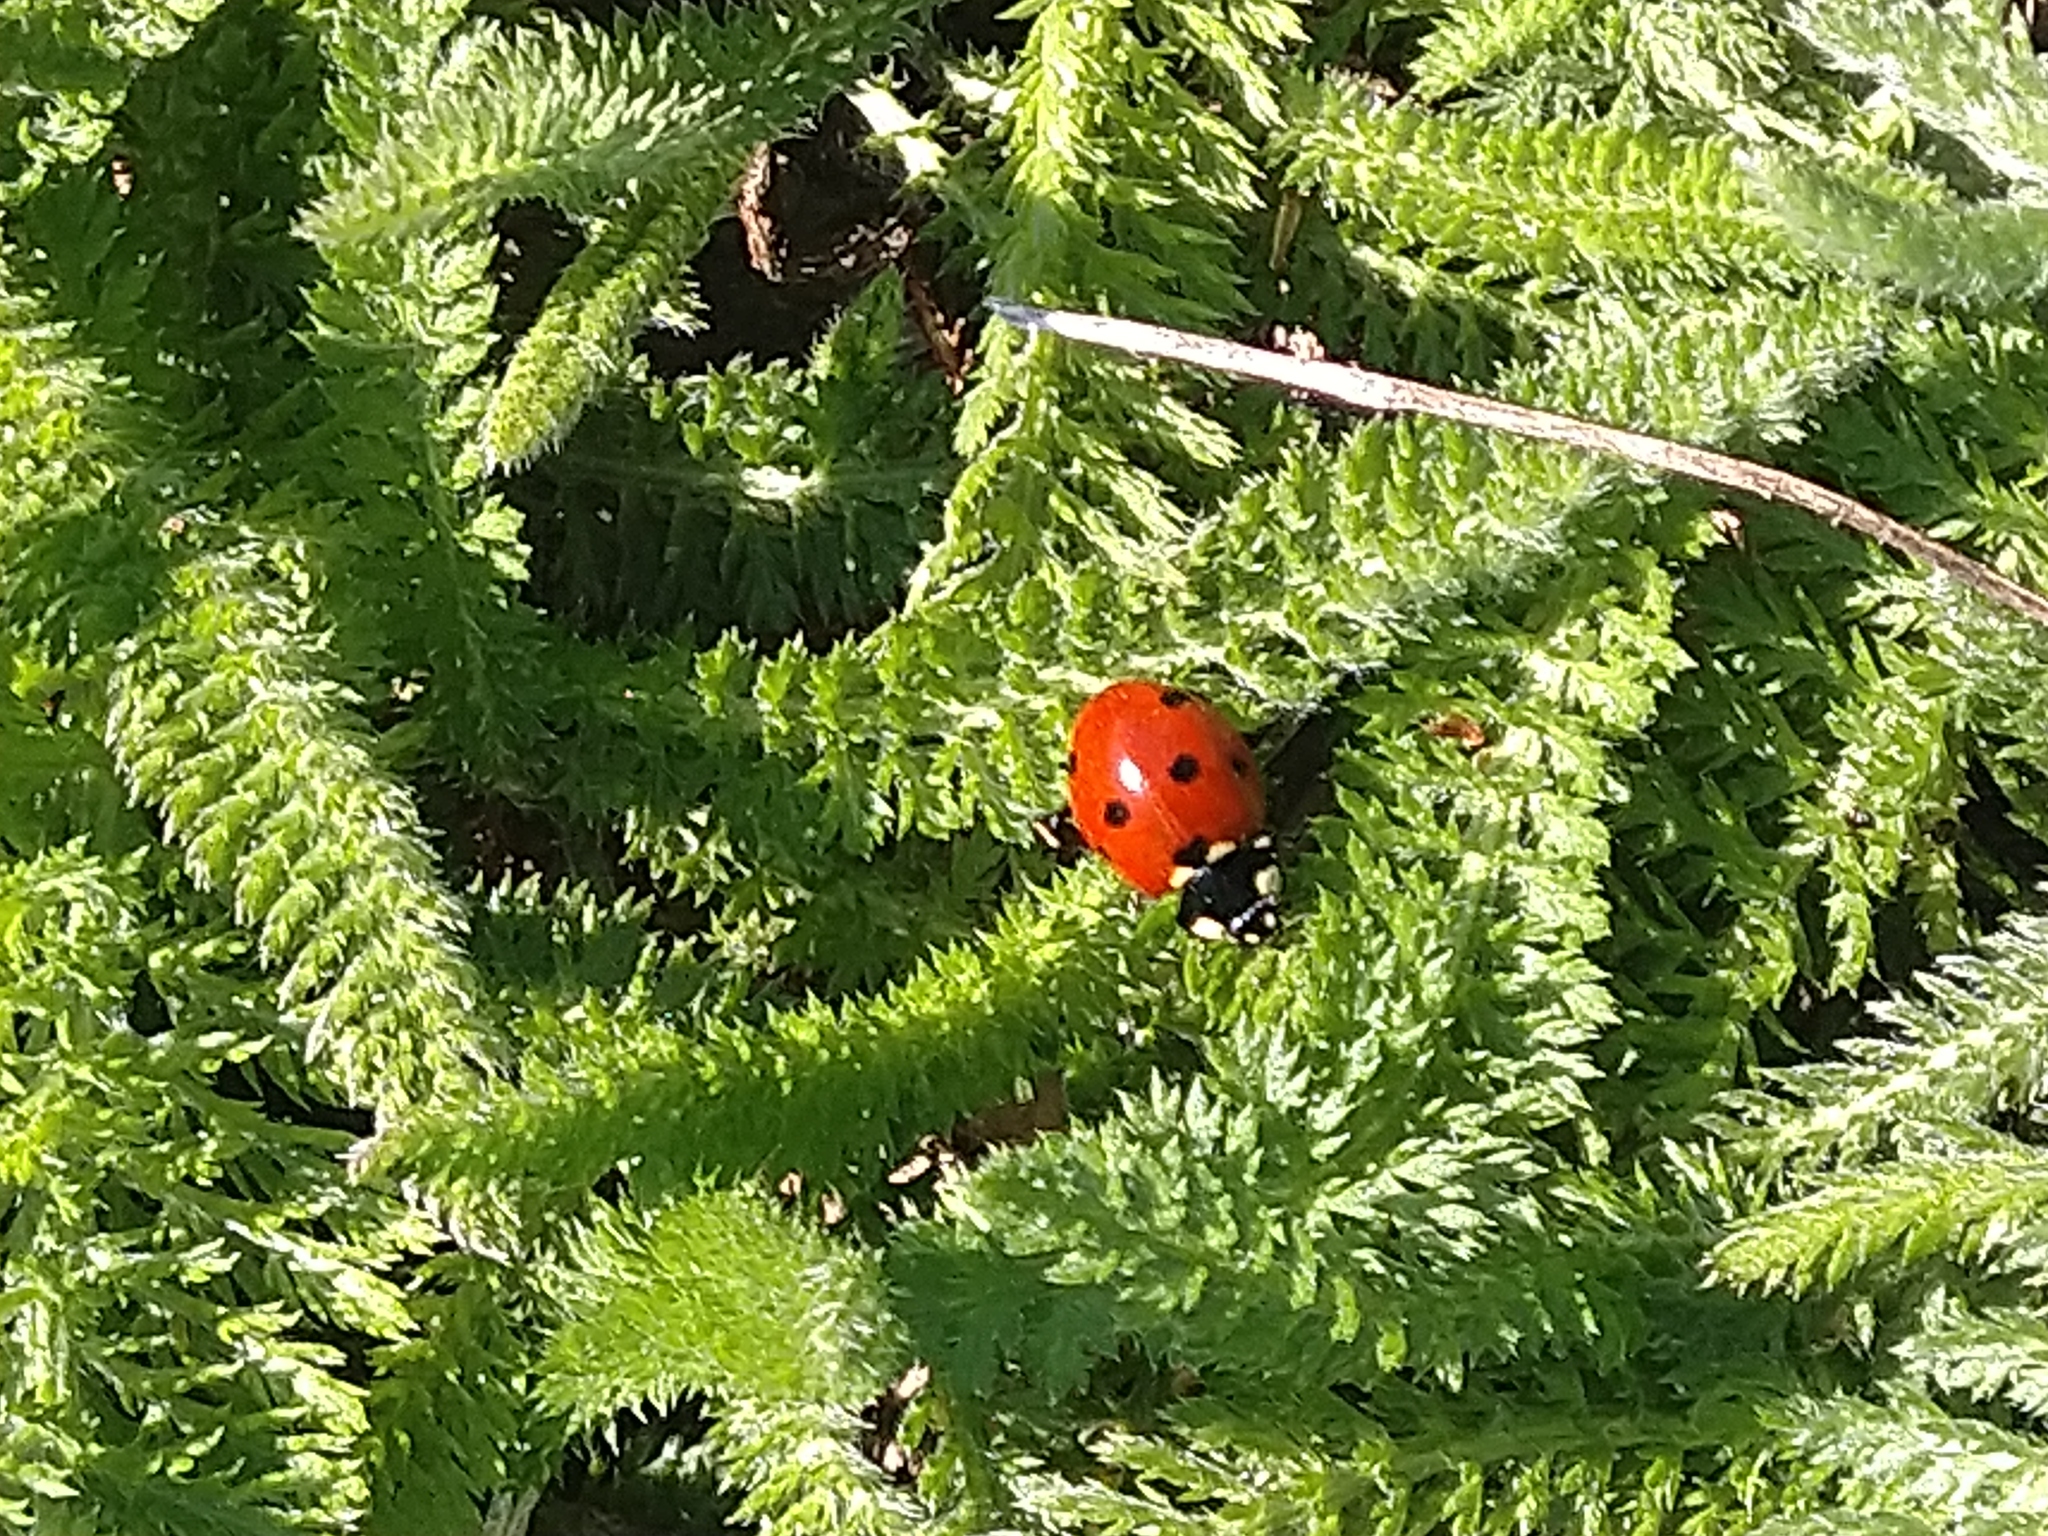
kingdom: Animalia
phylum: Arthropoda
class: Insecta
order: Coleoptera
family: Coccinellidae
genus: Coccinella
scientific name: Coccinella septempunctata
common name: Sevenspotted lady beetle
